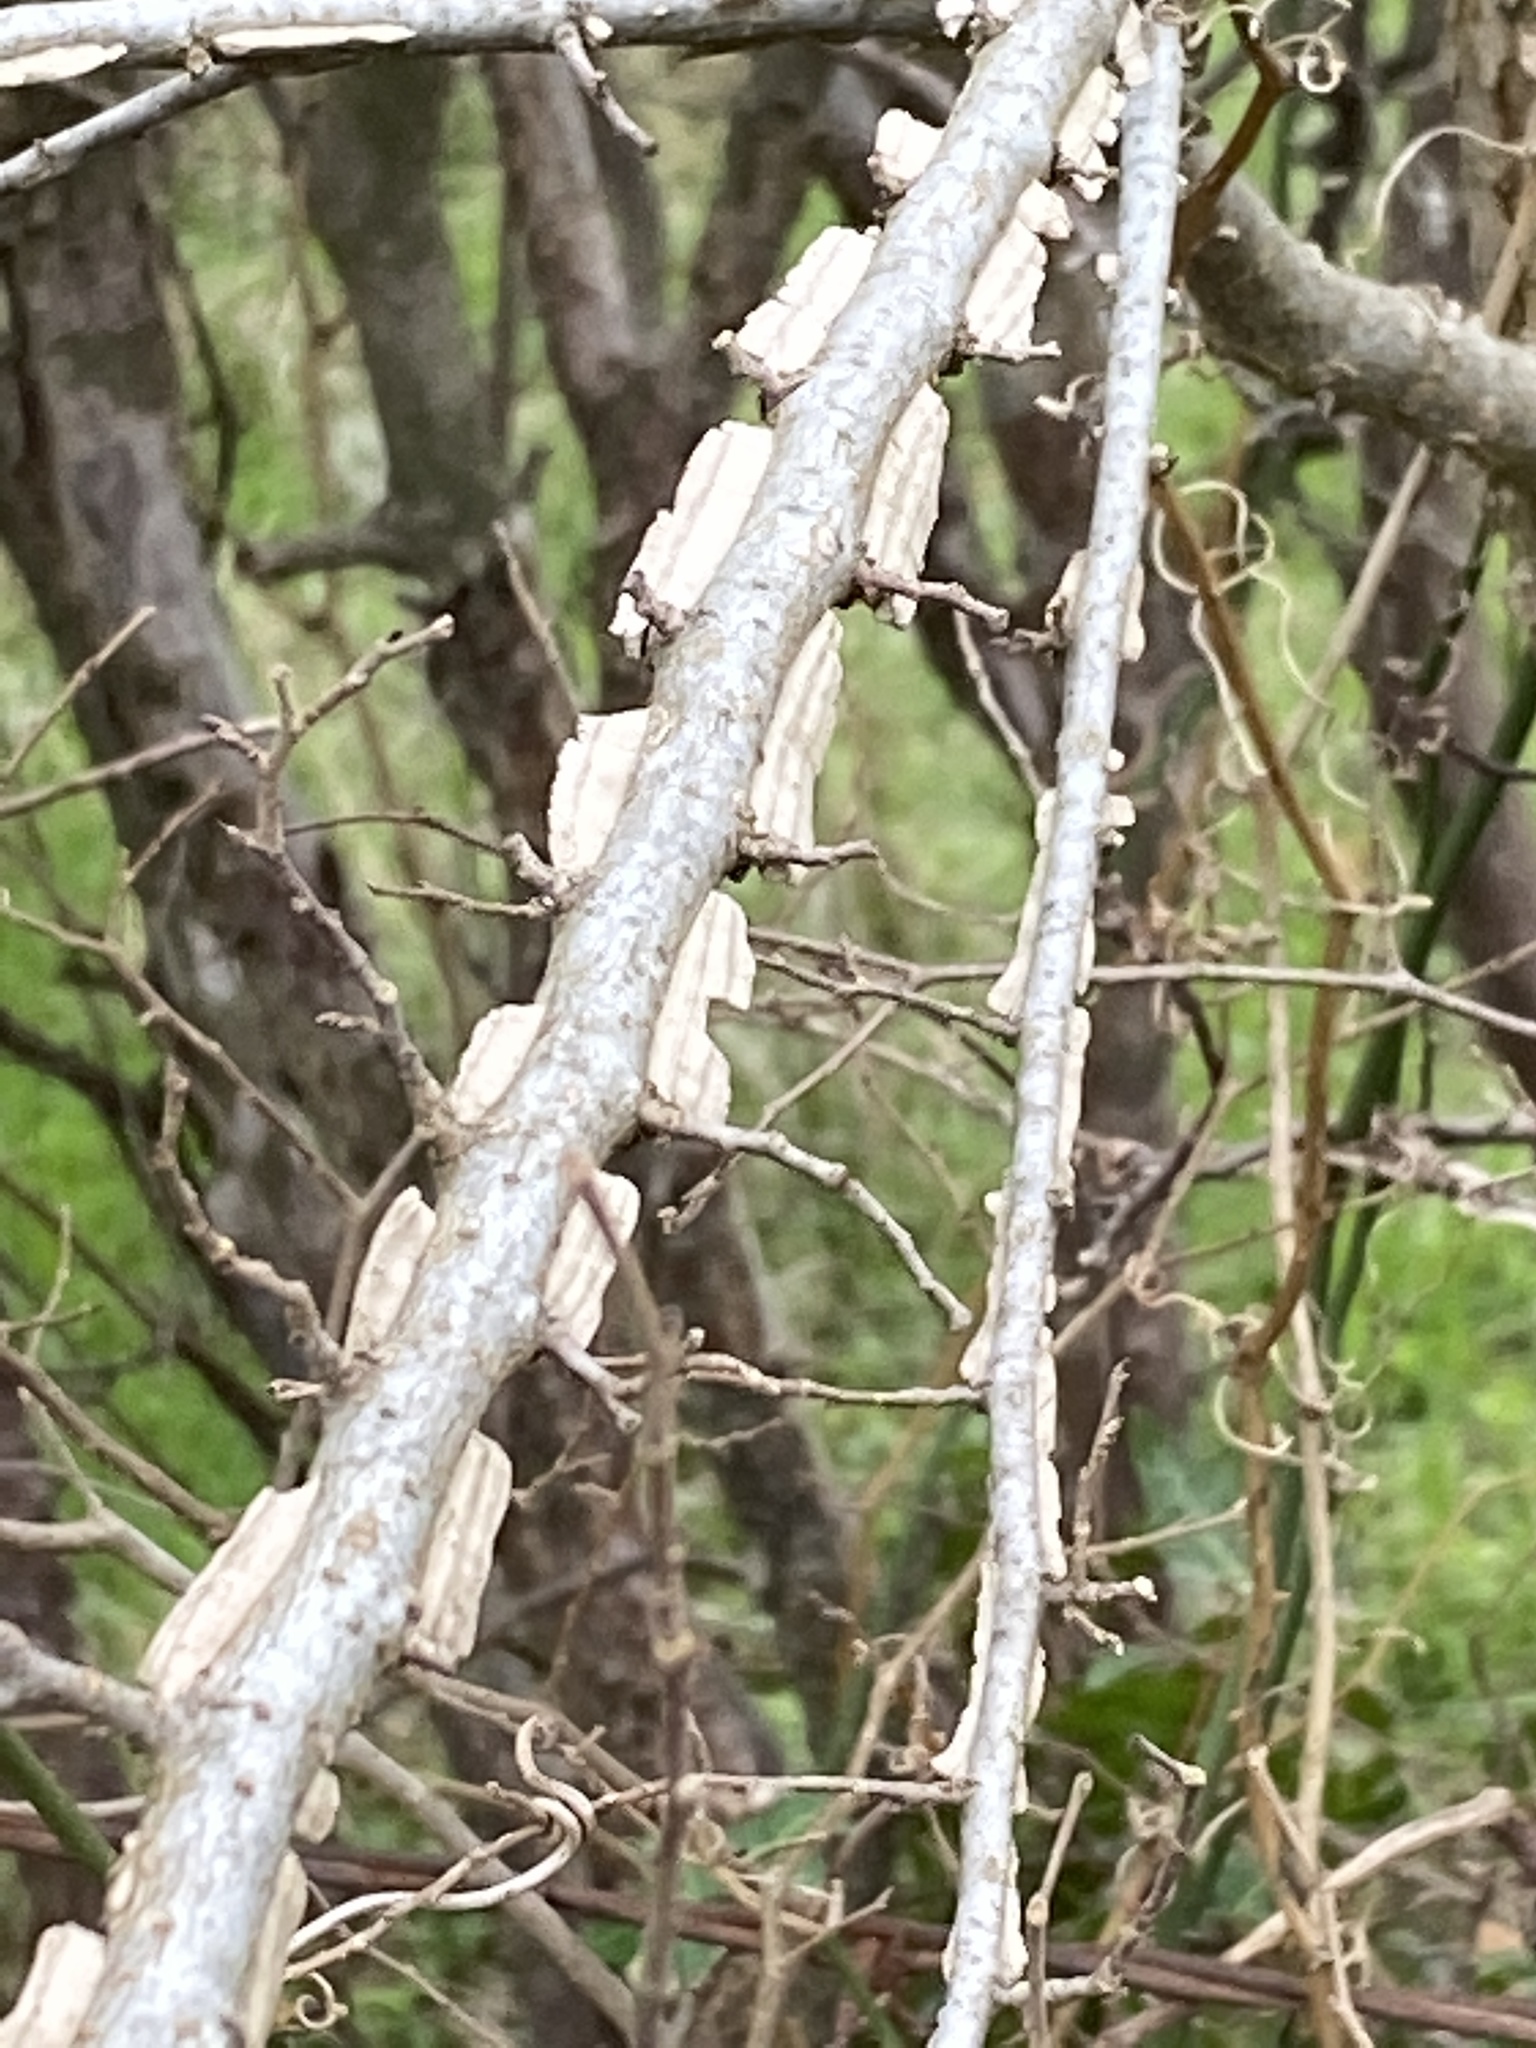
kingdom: Plantae
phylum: Tracheophyta
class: Magnoliopsida
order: Rosales
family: Ulmaceae
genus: Ulmus
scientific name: Ulmus crassifolia
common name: Basket elm
